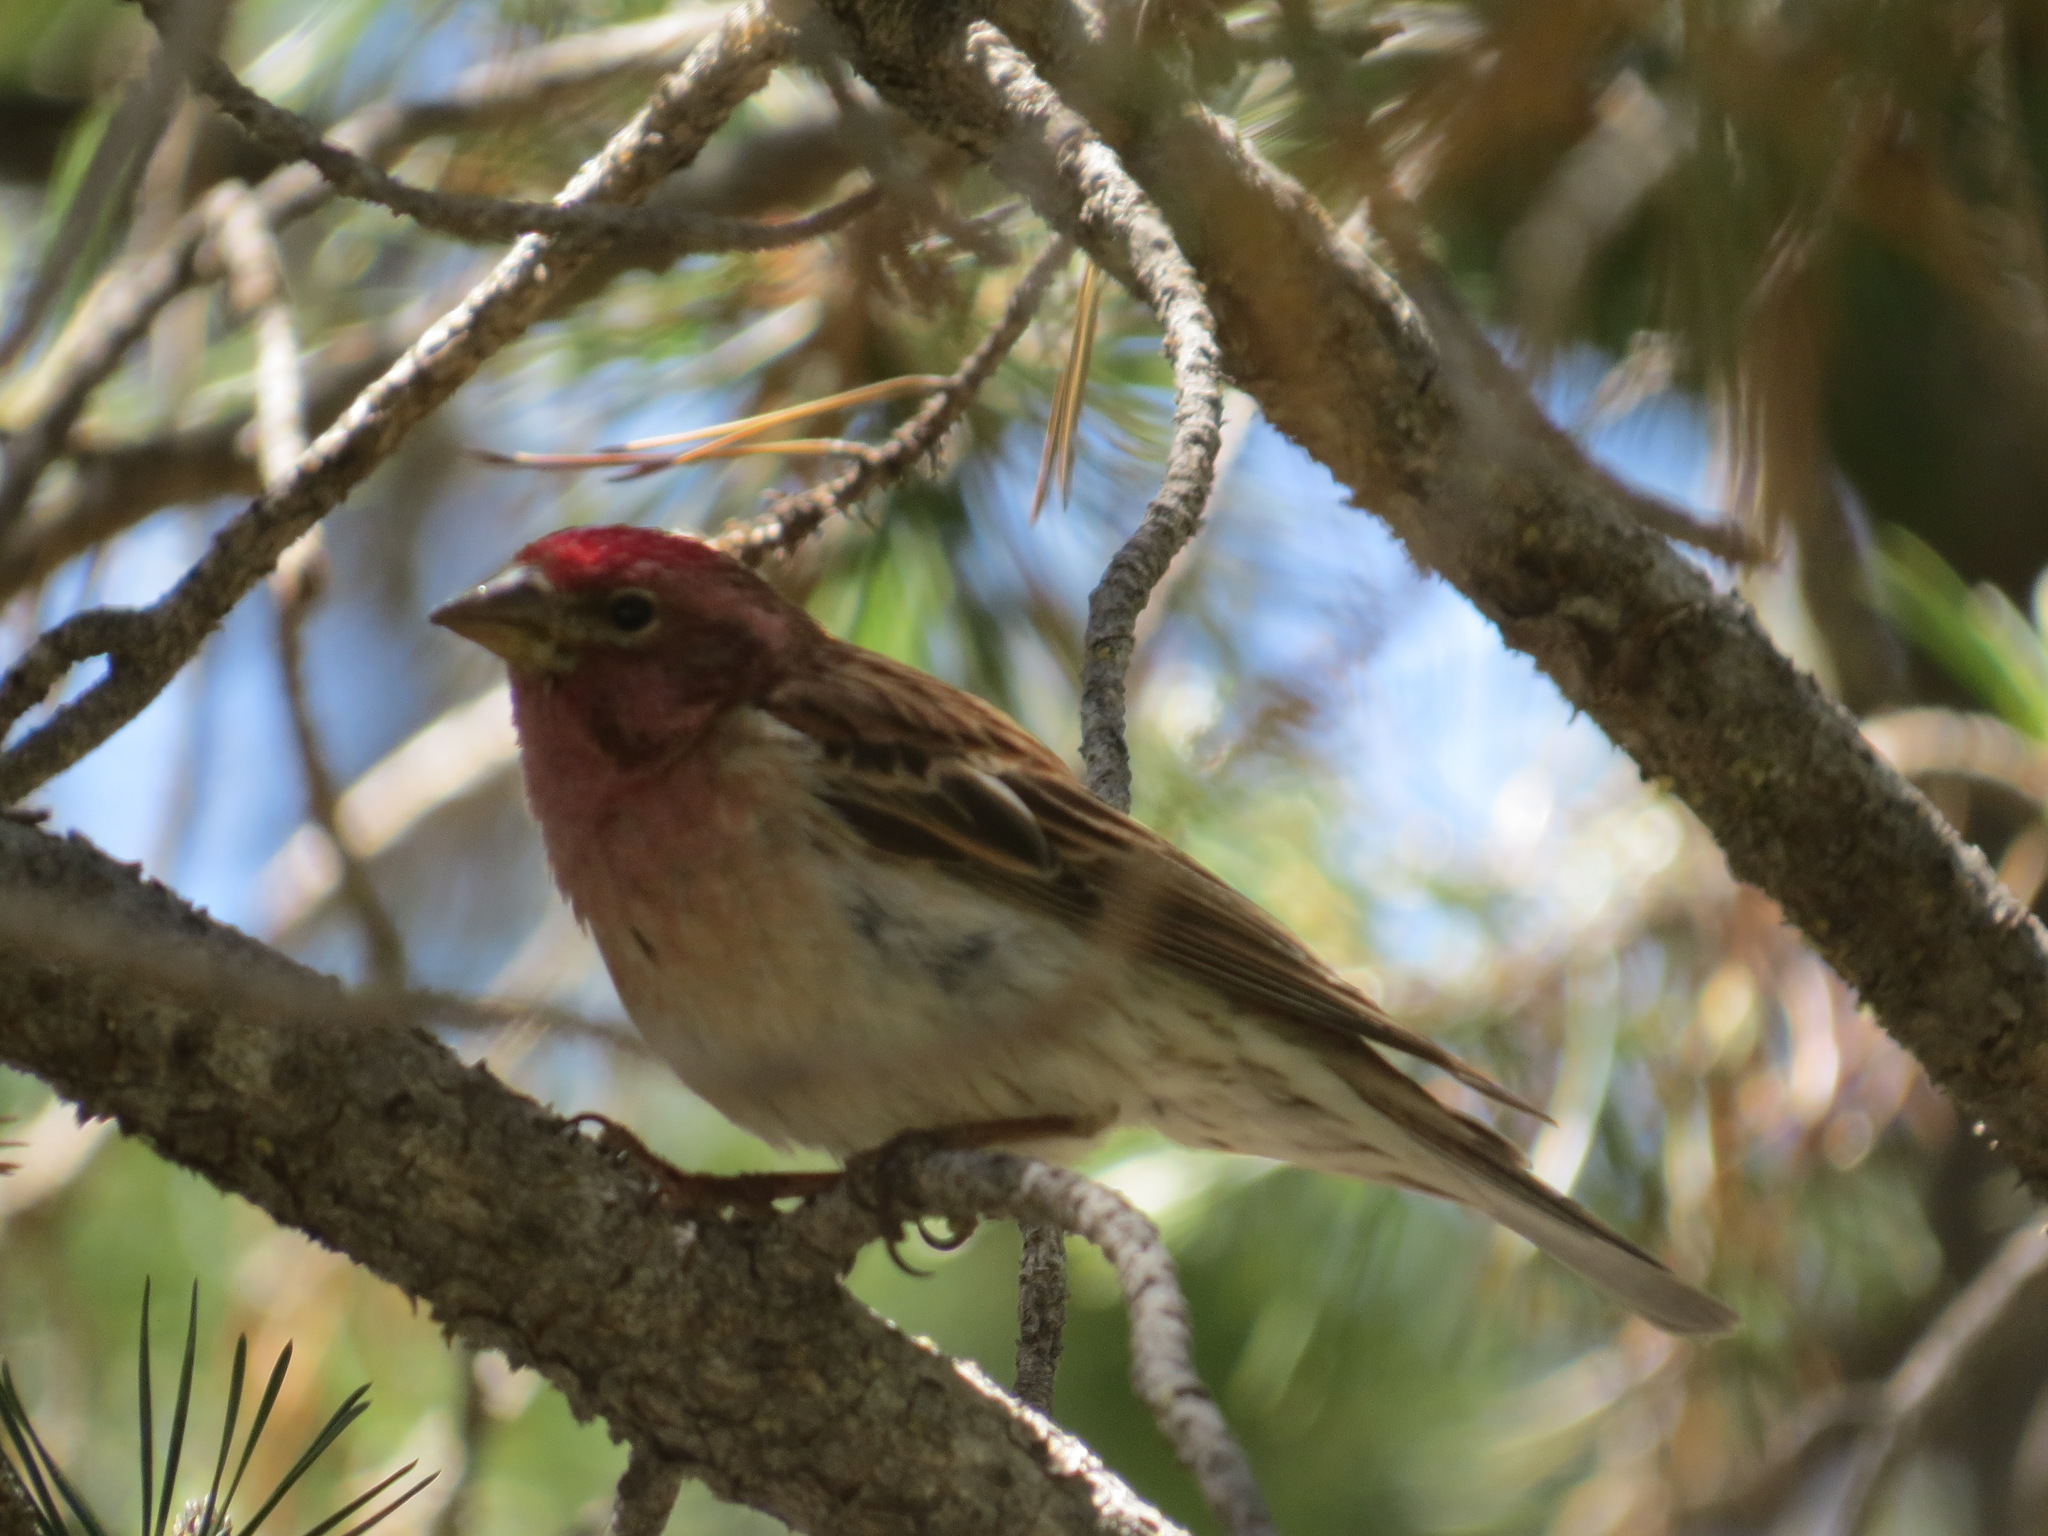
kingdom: Animalia
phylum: Chordata
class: Aves
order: Passeriformes
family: Fringillidae
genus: Haemorhous
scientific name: Haemorhous cassinii
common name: Cassin's finch
